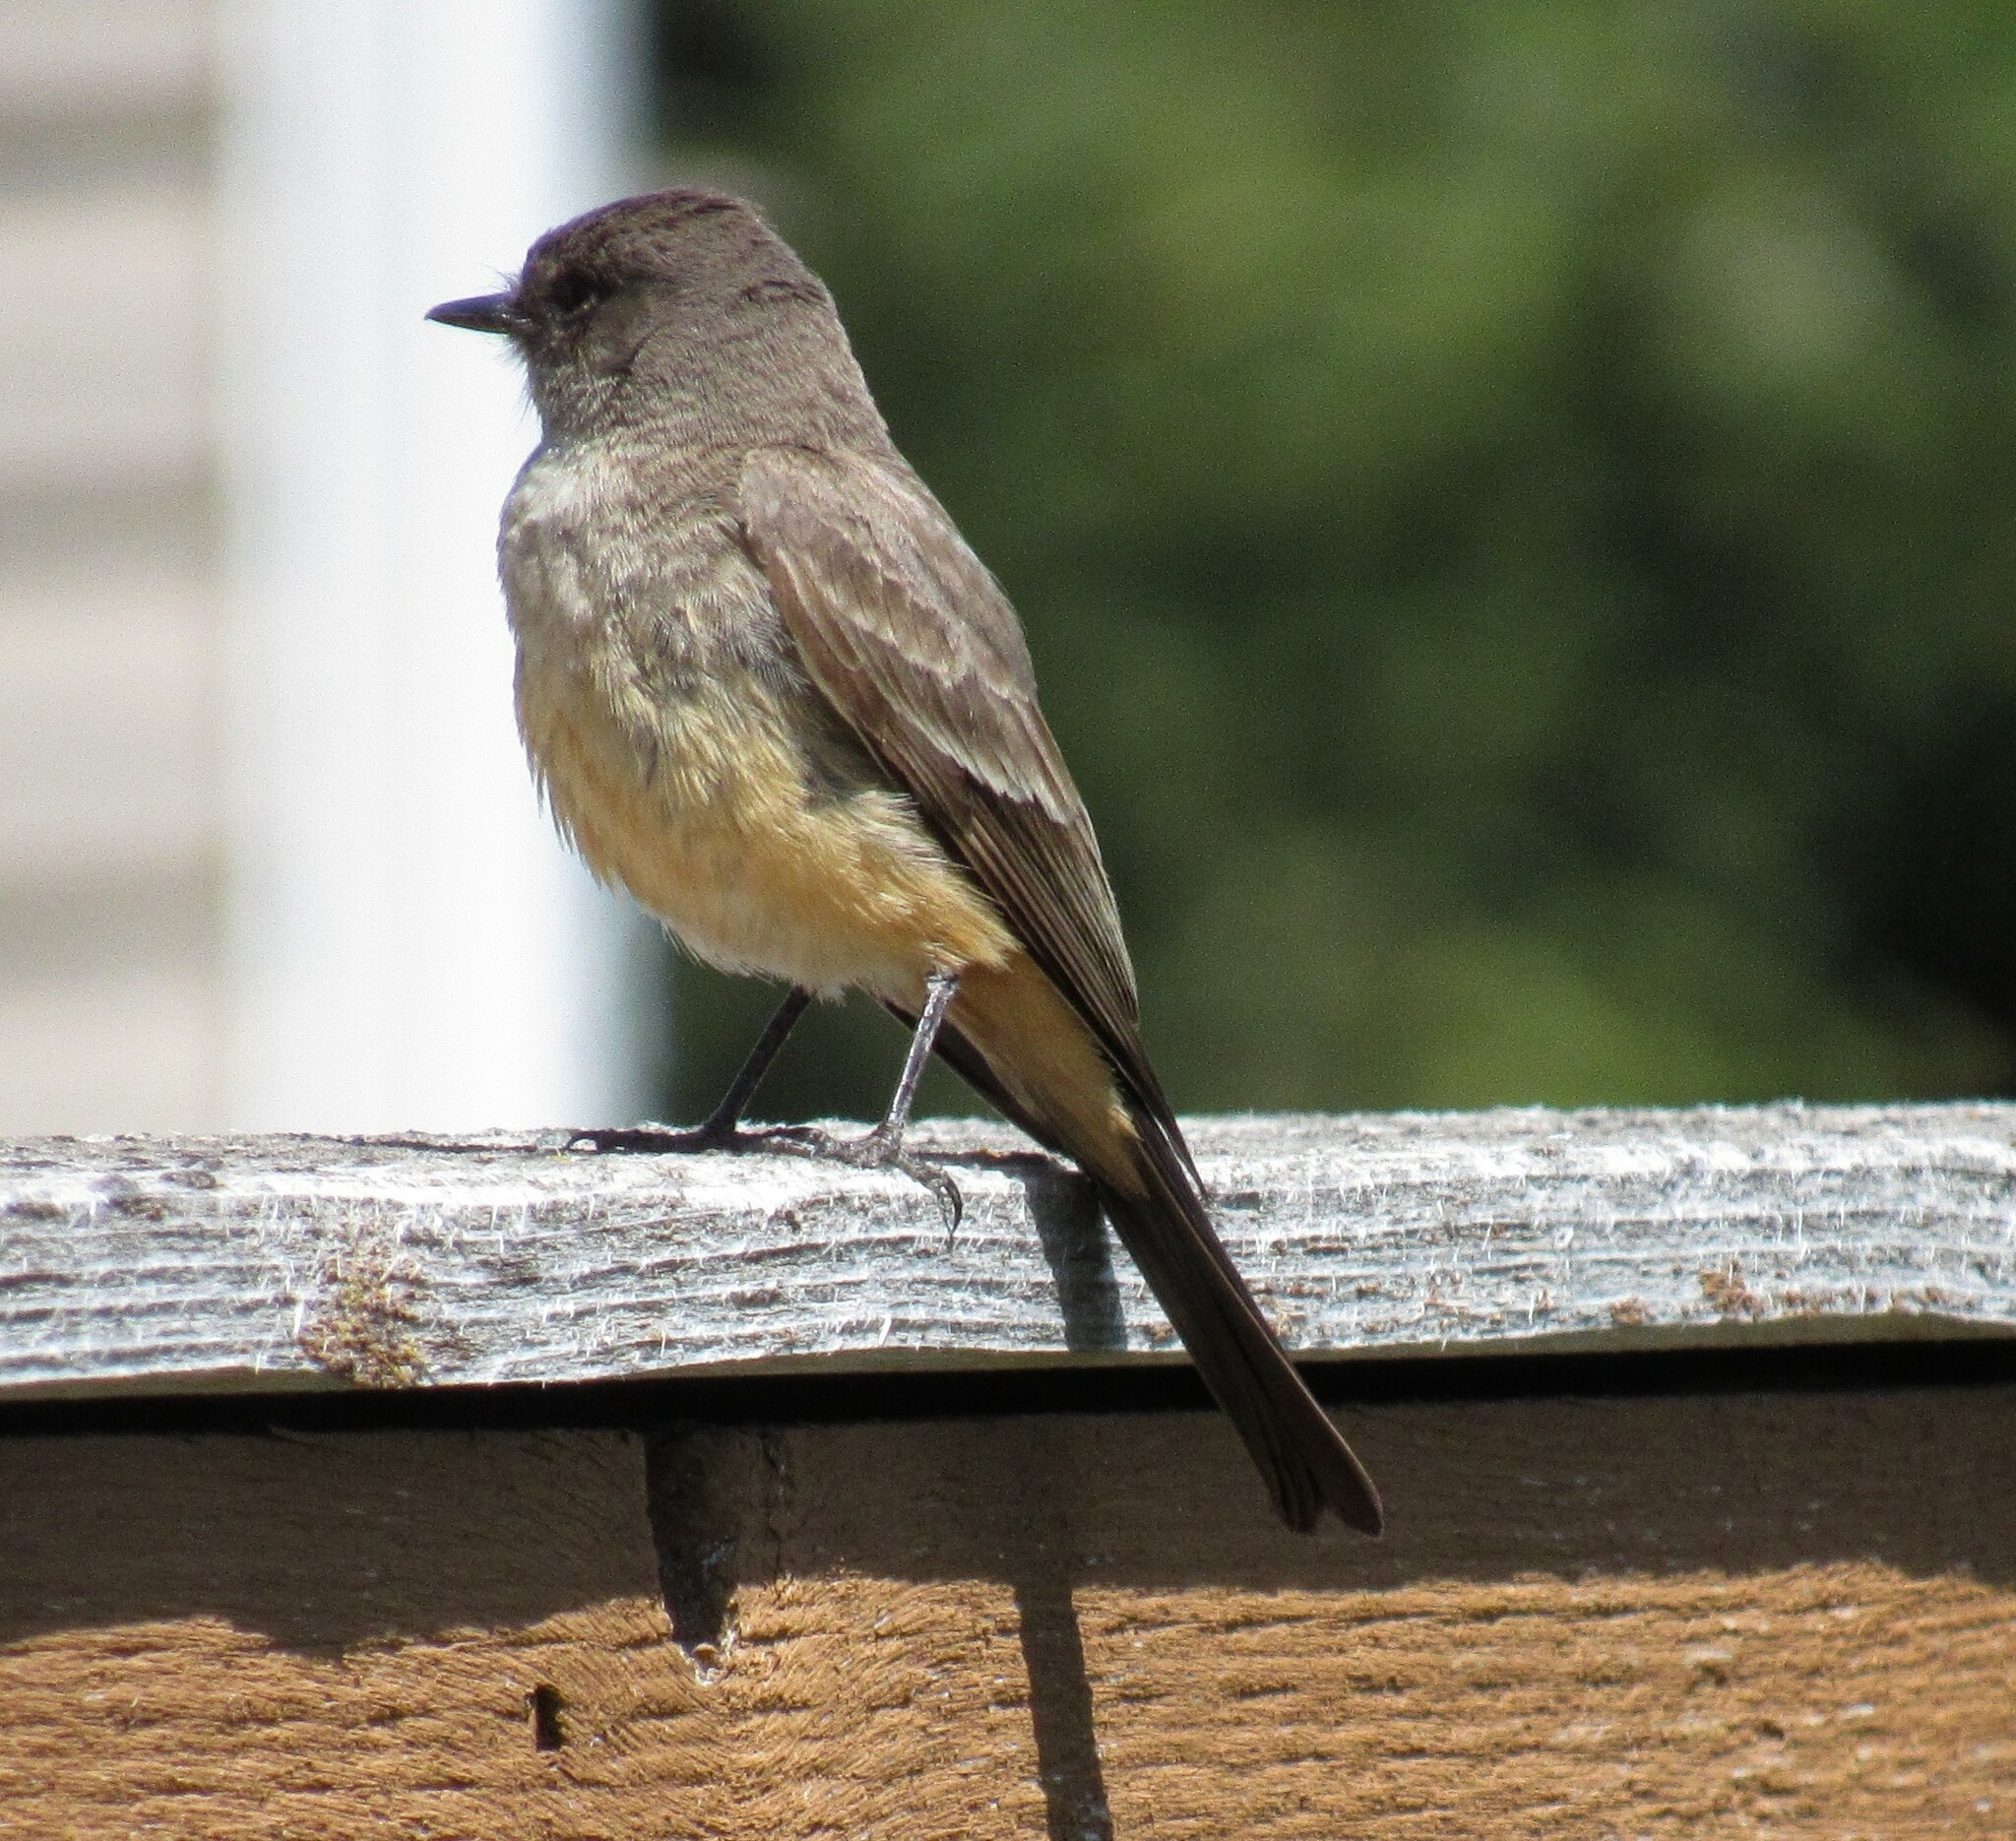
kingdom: Animalia
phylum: Chordata
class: Aves
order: Passeriformes
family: Tyrannidae
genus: Sayornis
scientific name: Sayornis saya
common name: Say's phoebe
